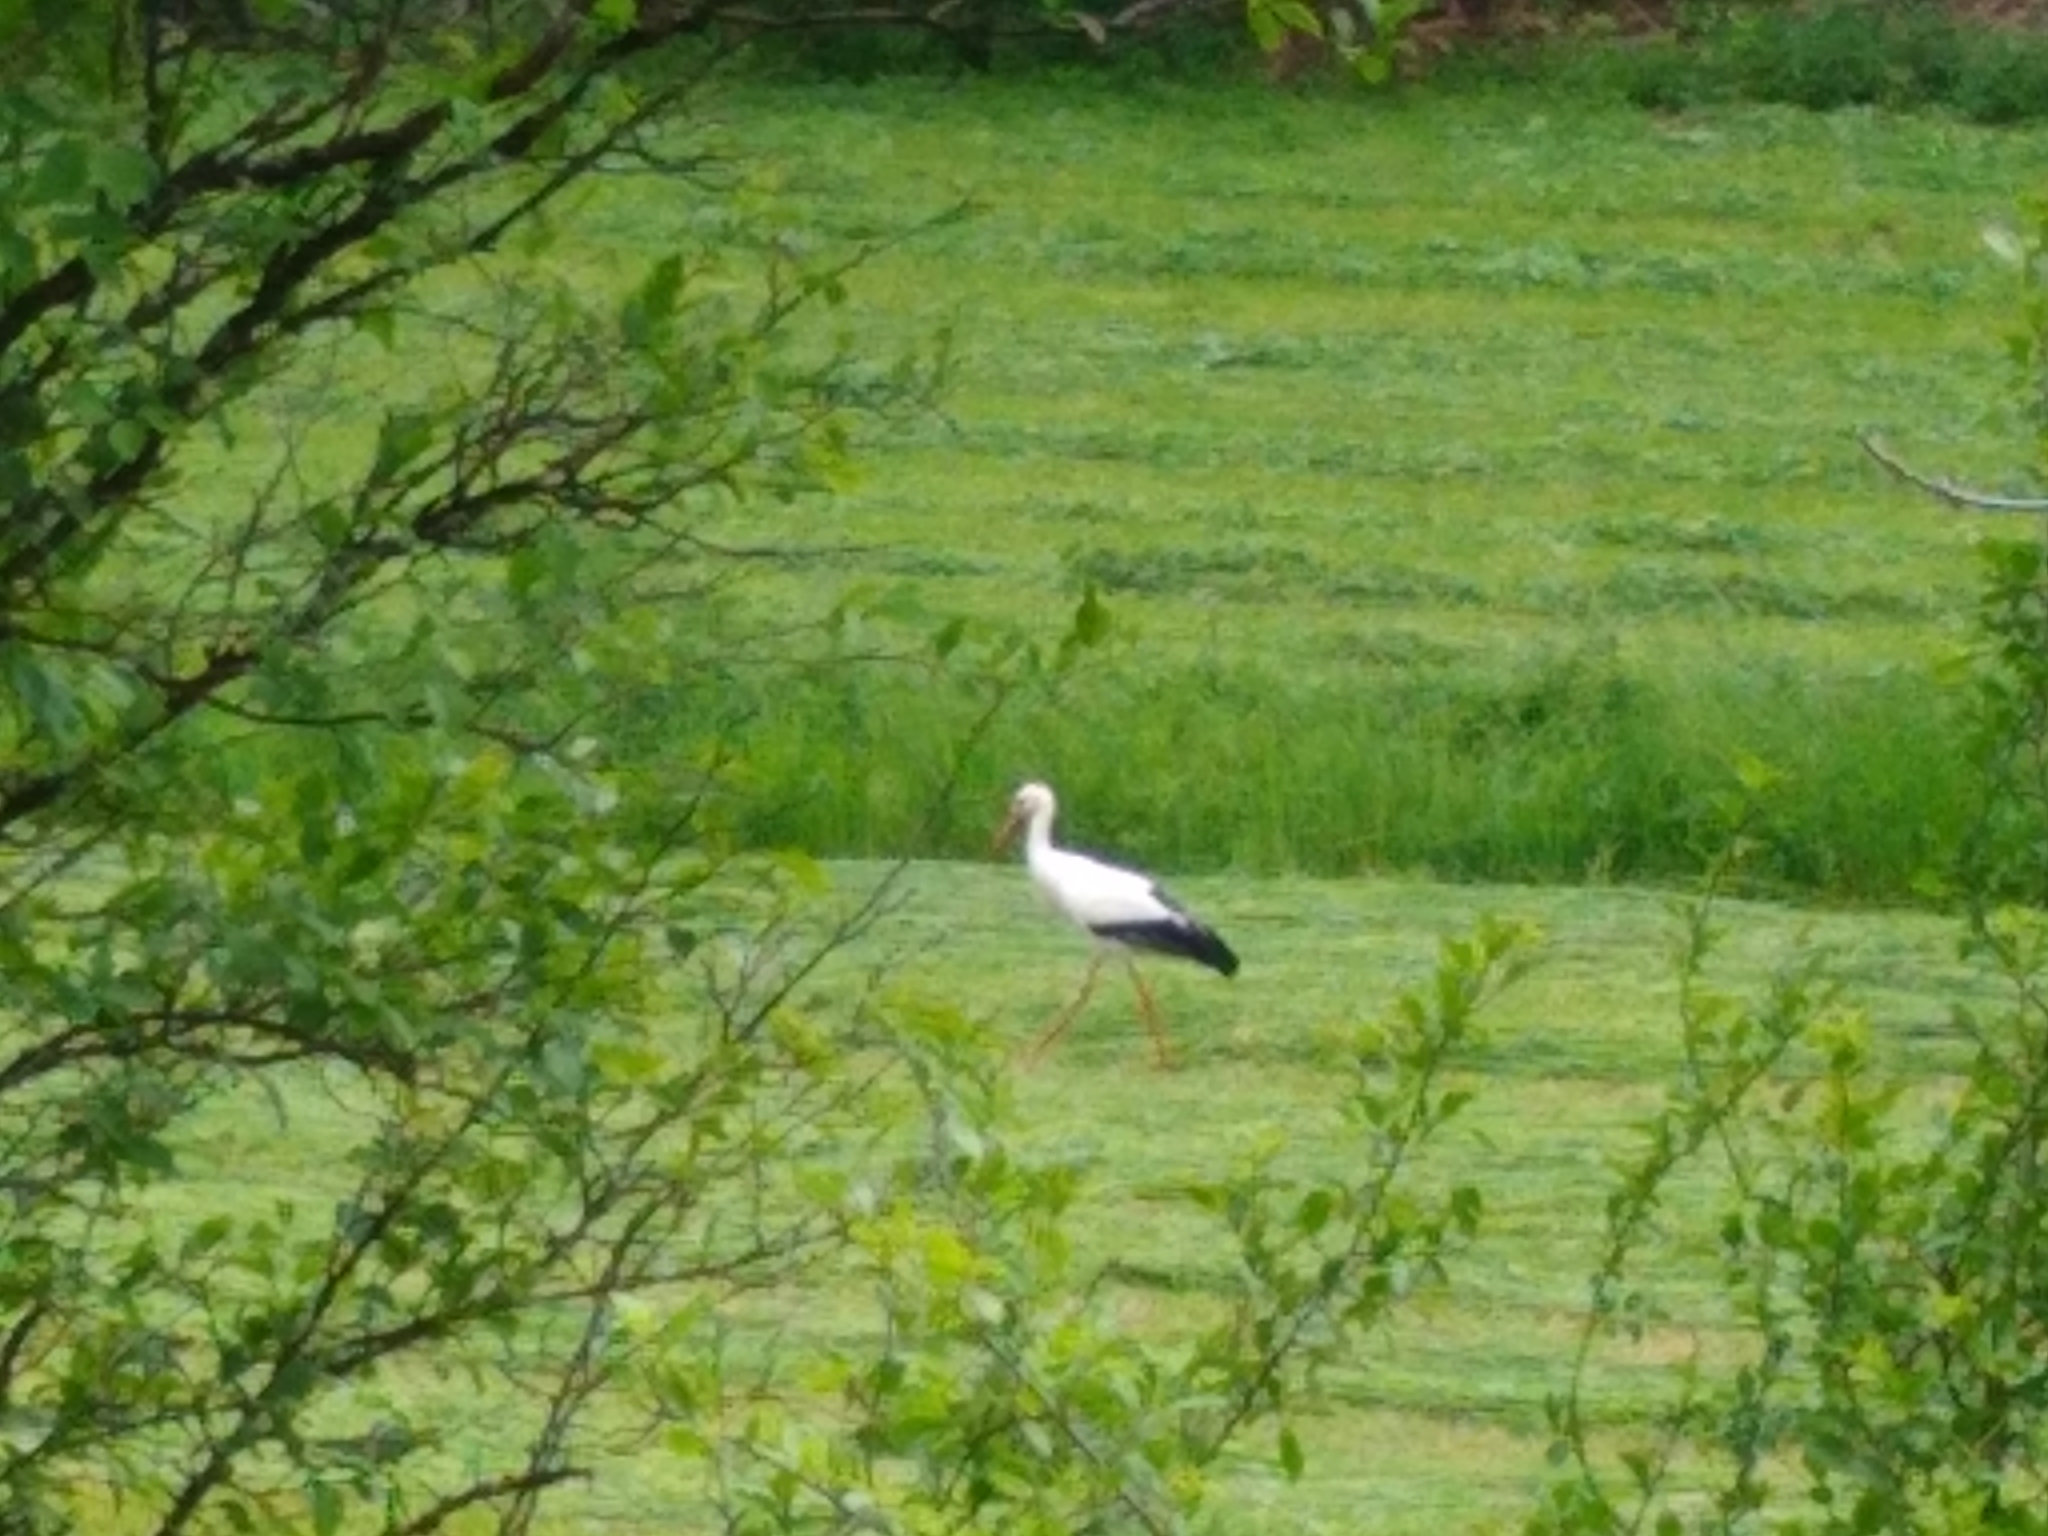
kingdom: Animalia
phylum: Chordata
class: Aves
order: Ciconiiformes
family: Ciconiidae
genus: Ciconia
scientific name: Ciconia ciconia
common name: White stork
